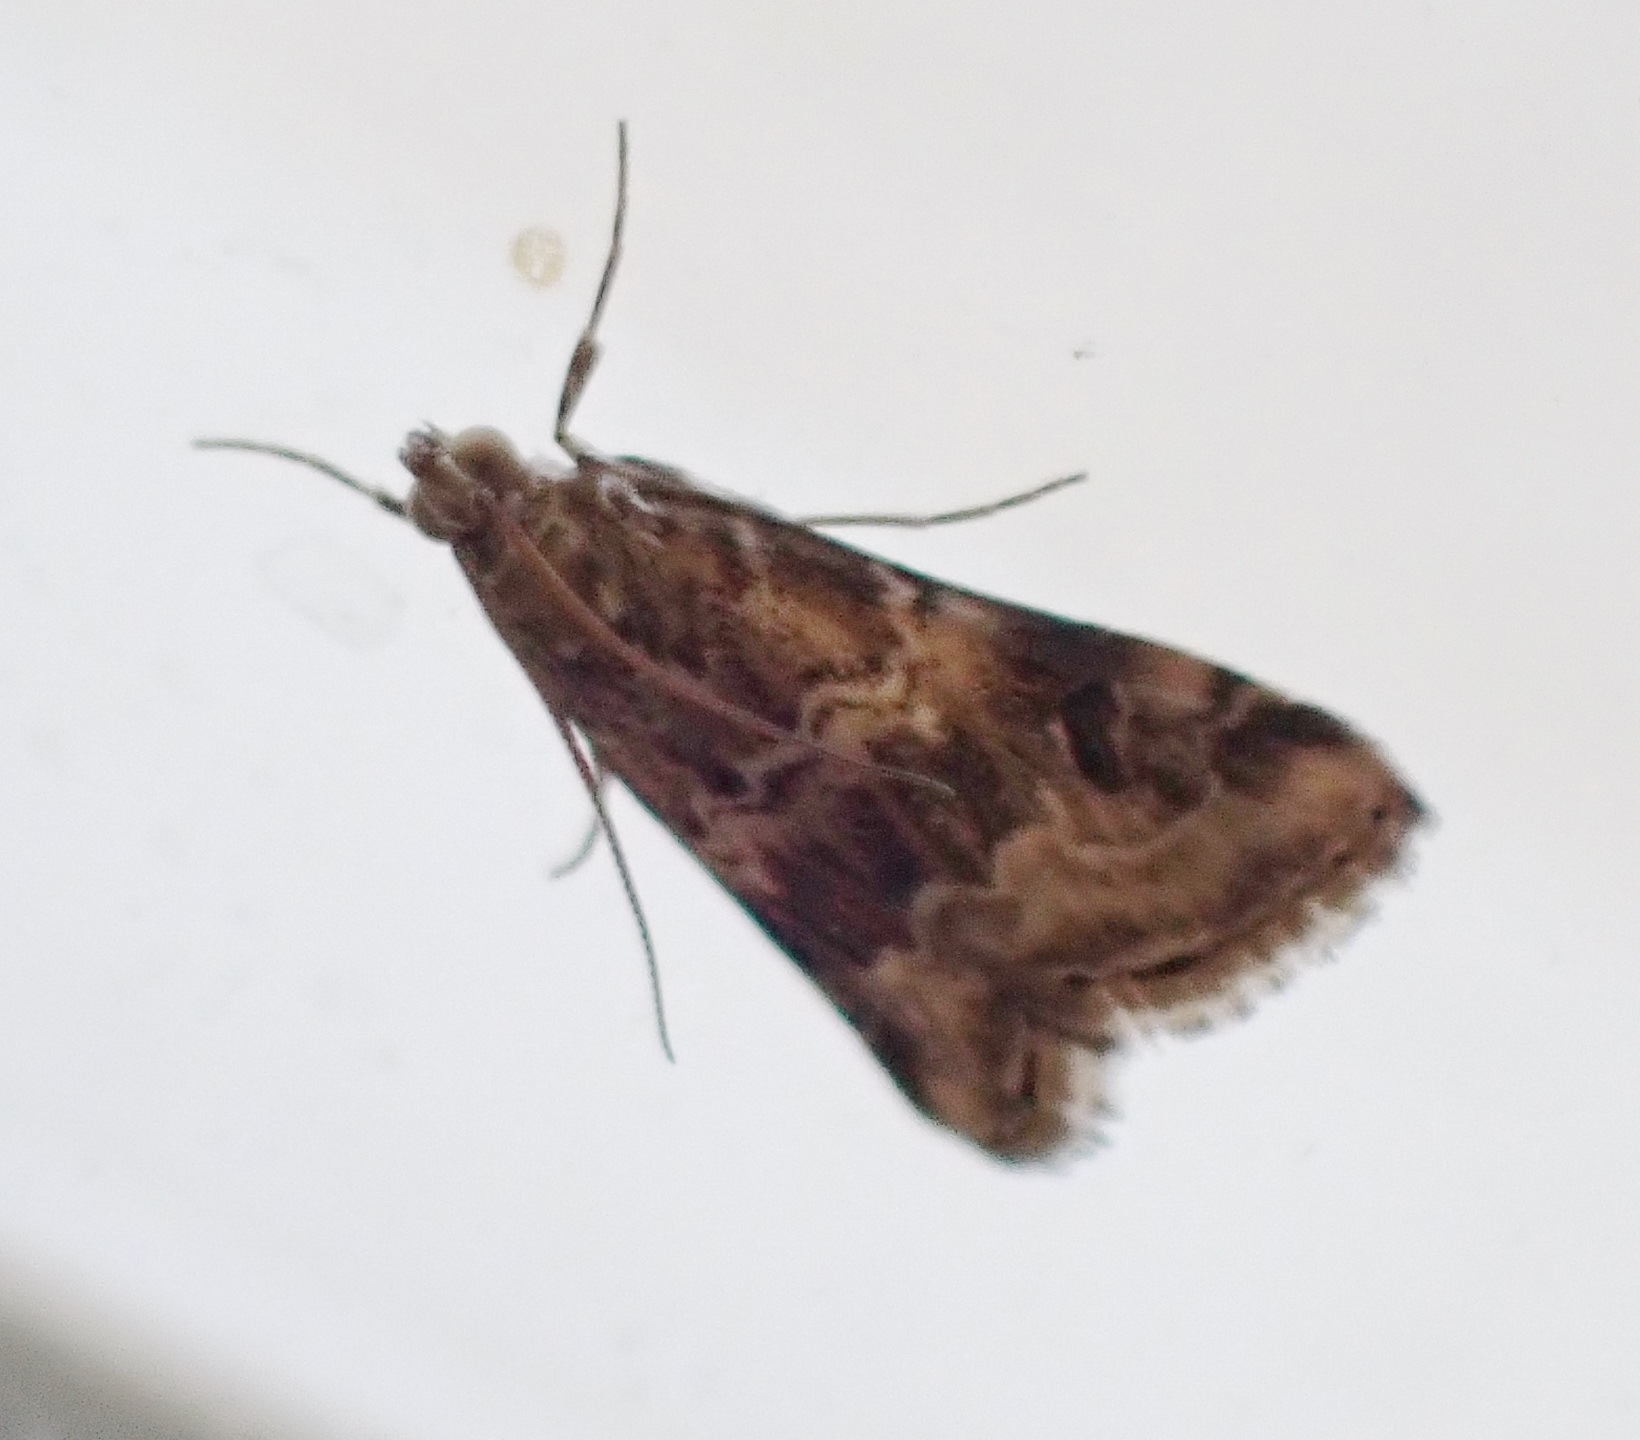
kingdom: Animalia
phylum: Arthropoda
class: Insecta
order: Lepidoptera
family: Crambidae
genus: Hellula
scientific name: Hellula undalis
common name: Cabbage webworm
